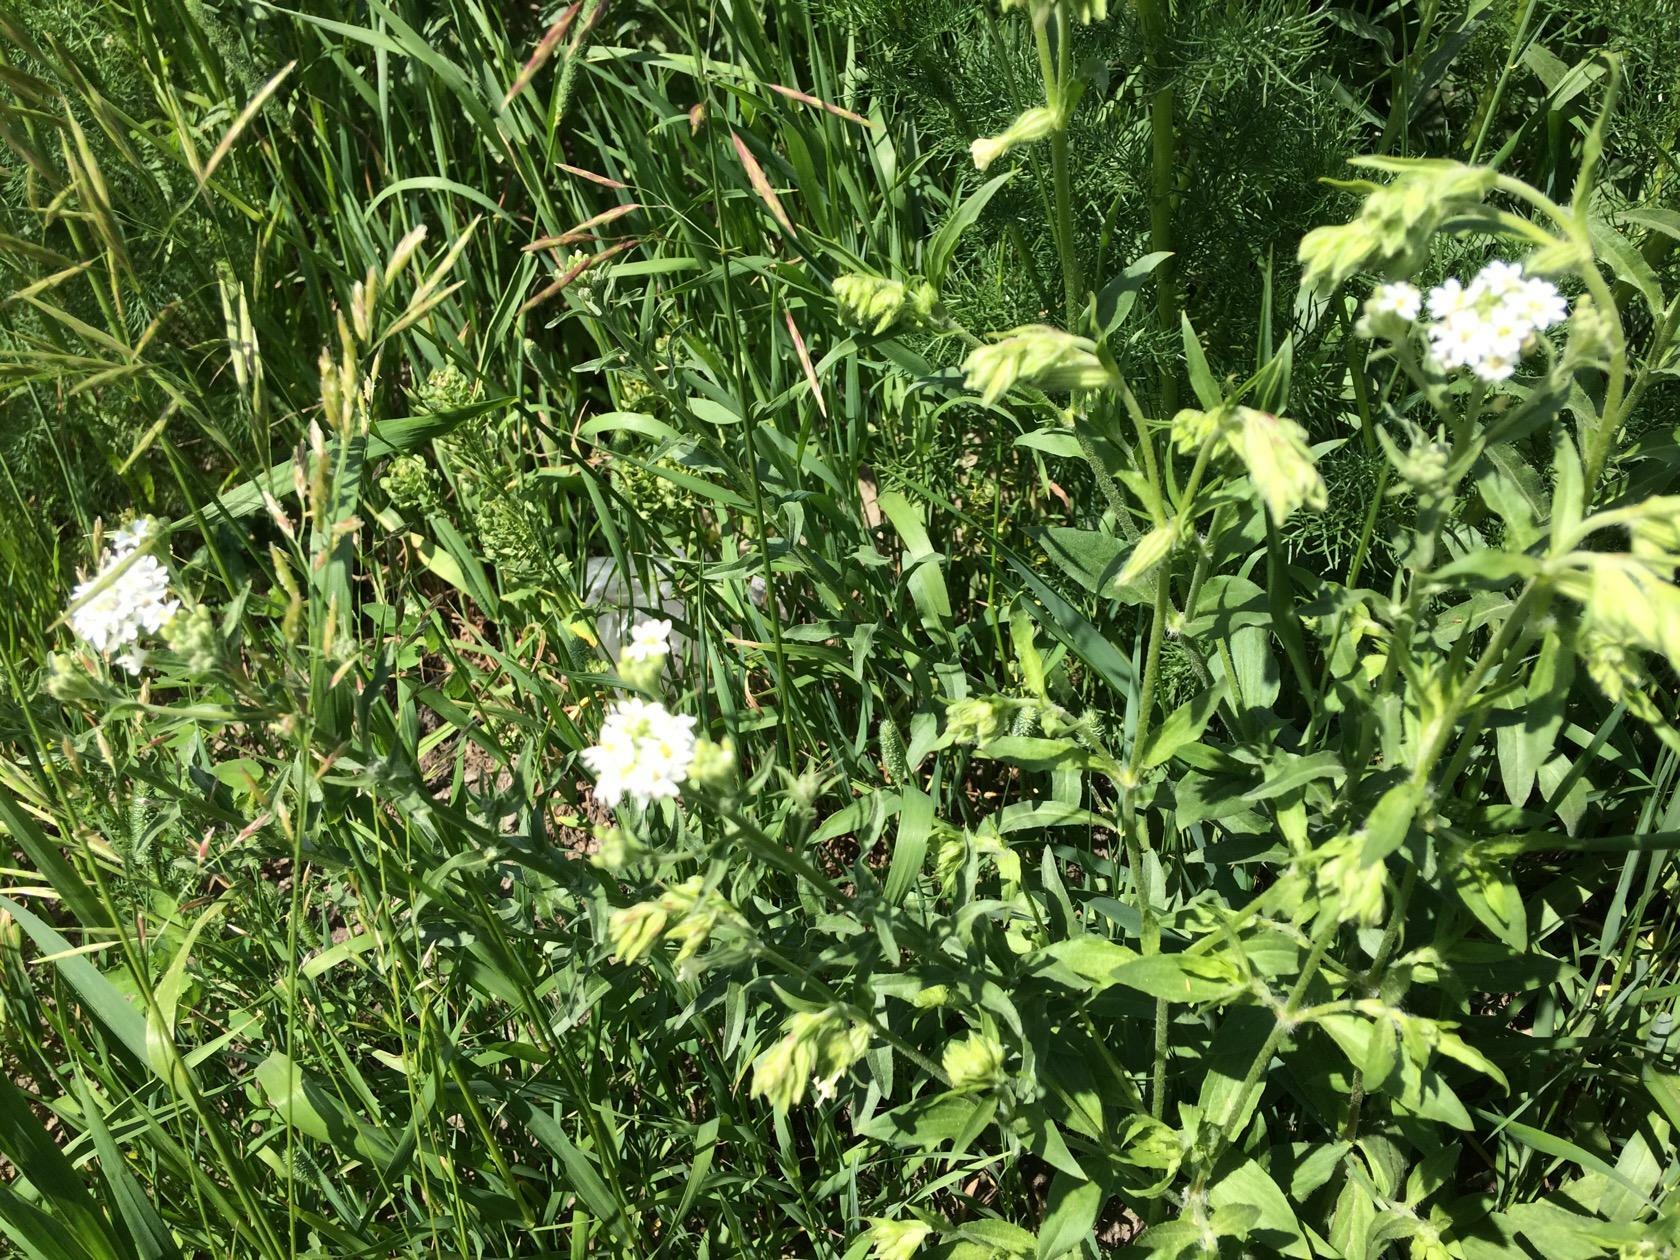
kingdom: Plantae
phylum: Tracheophyta
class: Magnoliopsida
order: Brassicales
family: Brassicaceae
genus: Berteroa
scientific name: Berteroa incana
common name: Hoary alison
